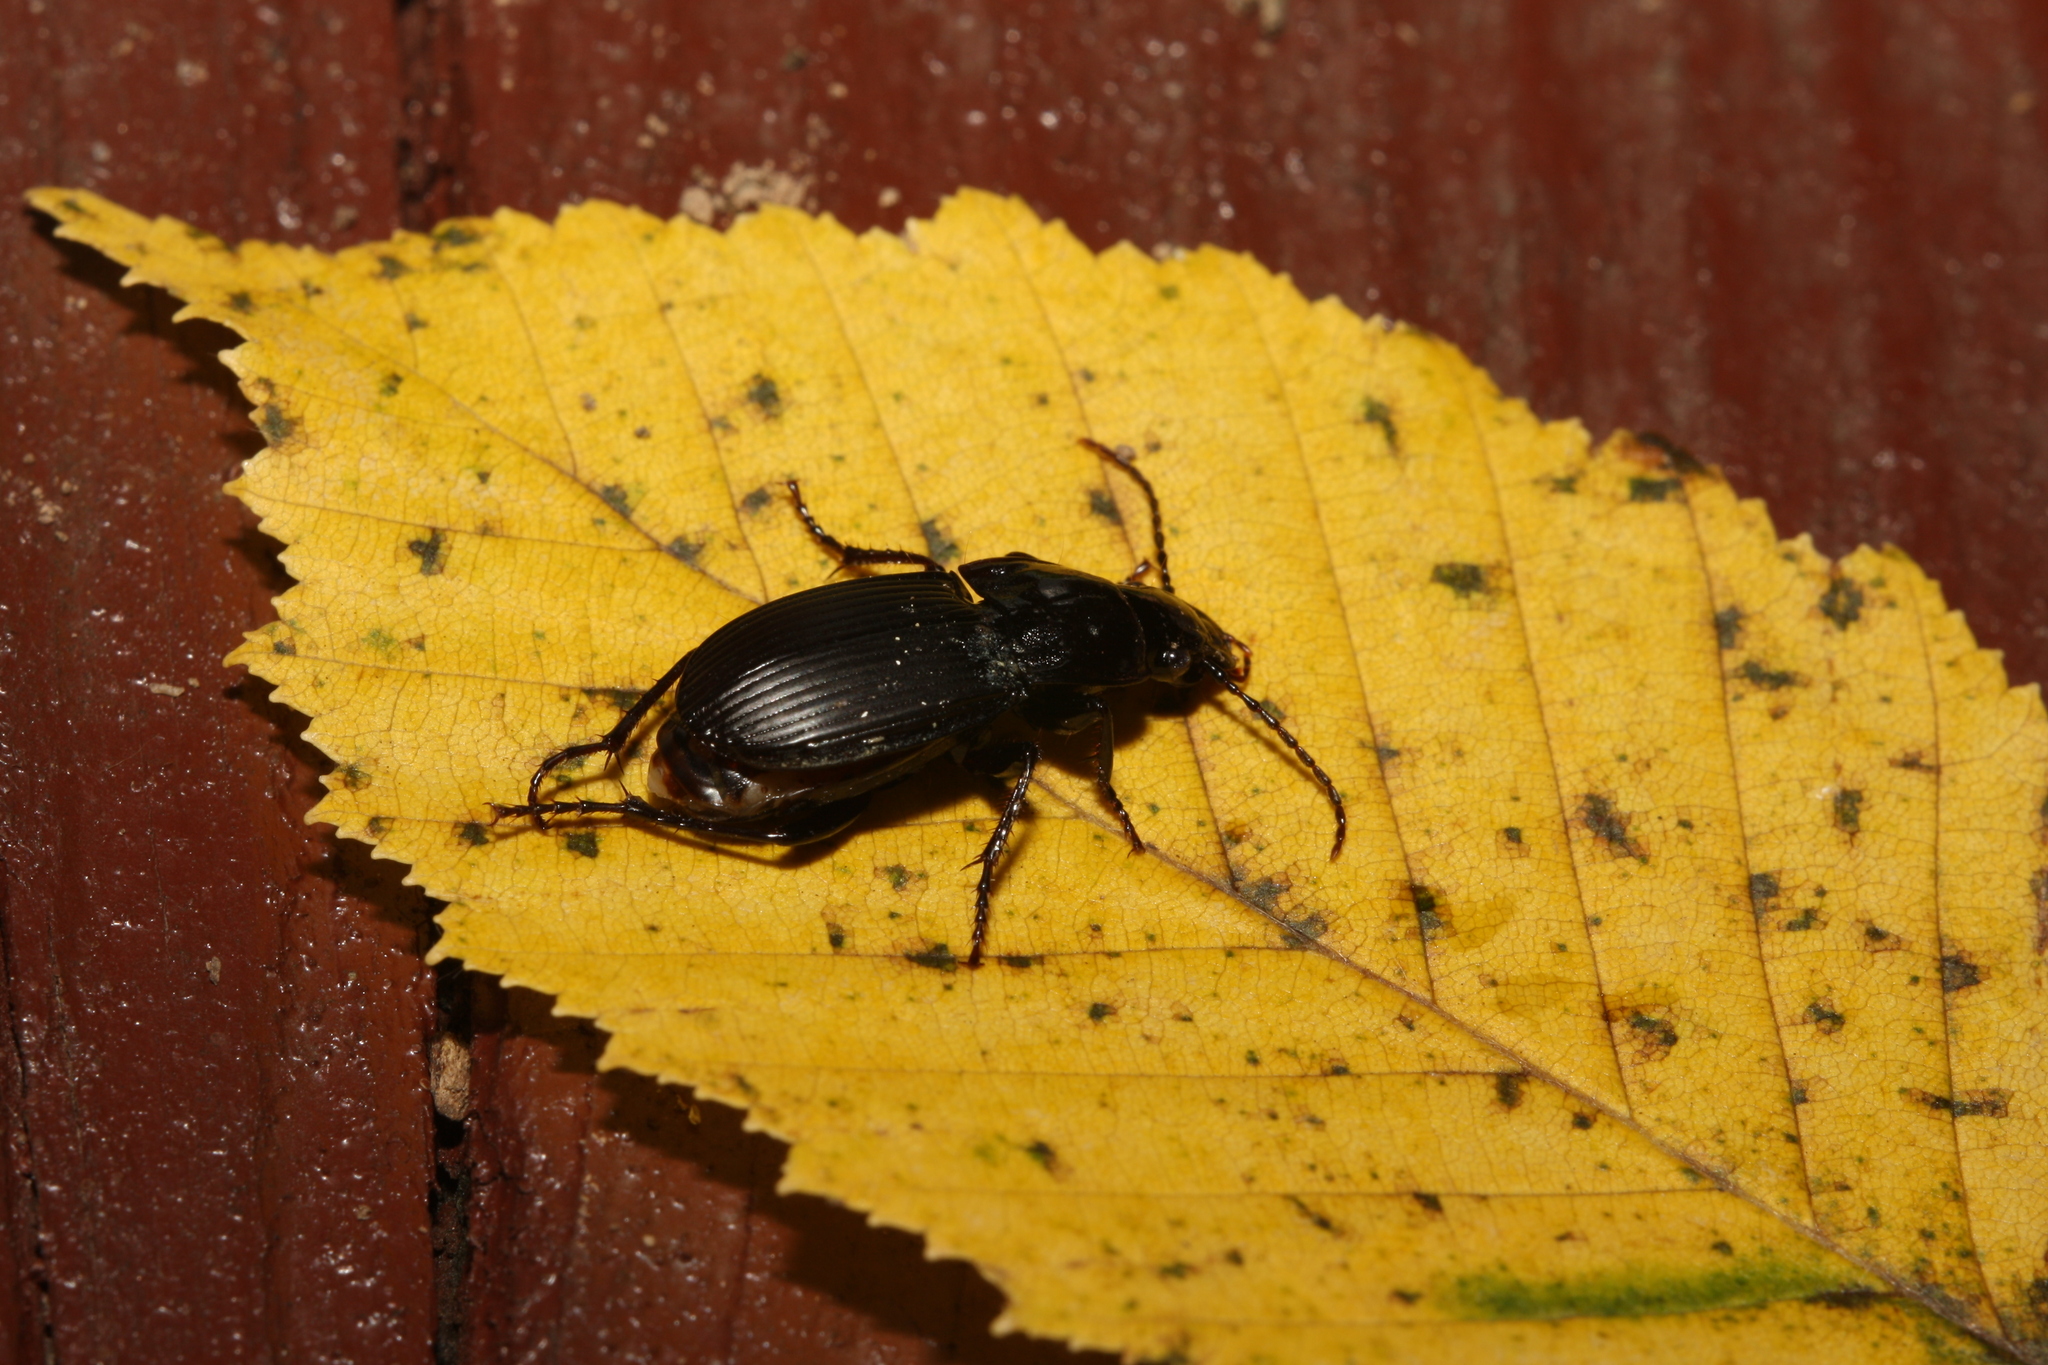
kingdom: Animalia
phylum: Arthropoda
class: Insecta
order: Coleoptera
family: Carabidae
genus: Abax
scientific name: Abax carinatus
